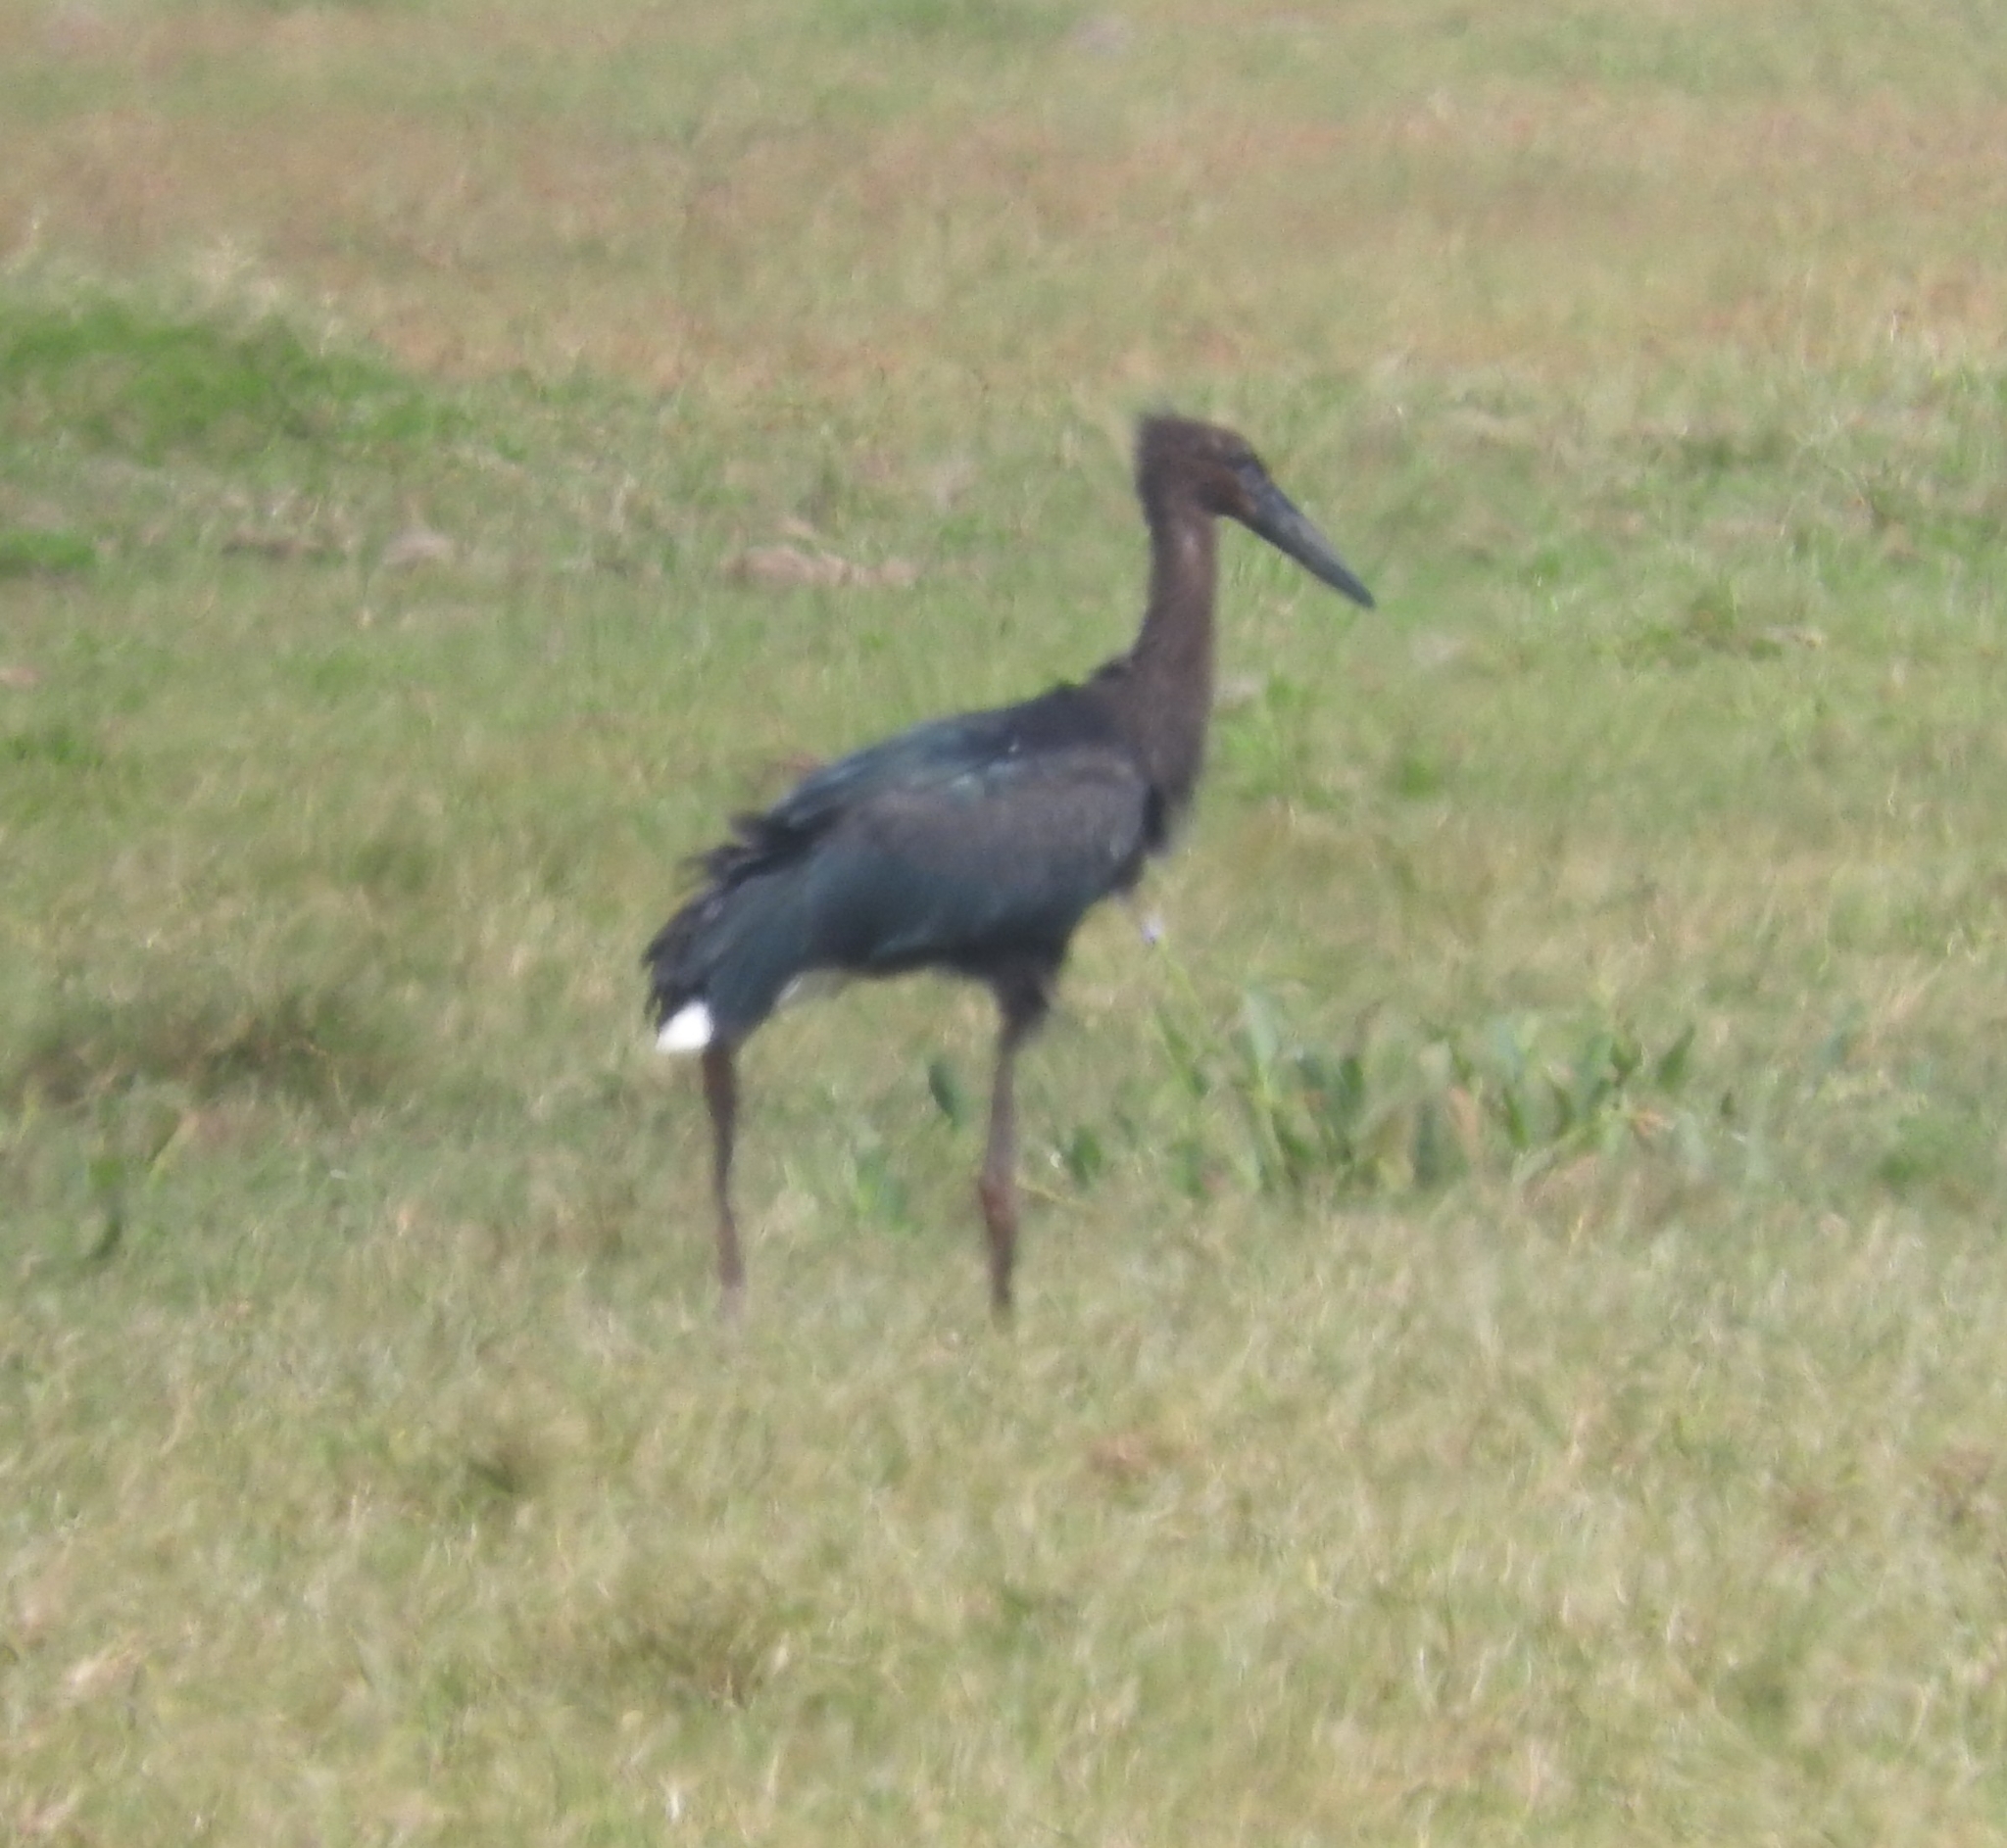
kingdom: Animalia
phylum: Chordata
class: Aves
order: Ciconiiformes
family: Ciconiidae
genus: Ciconia
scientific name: Ciconia maguari
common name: Maguari stork
